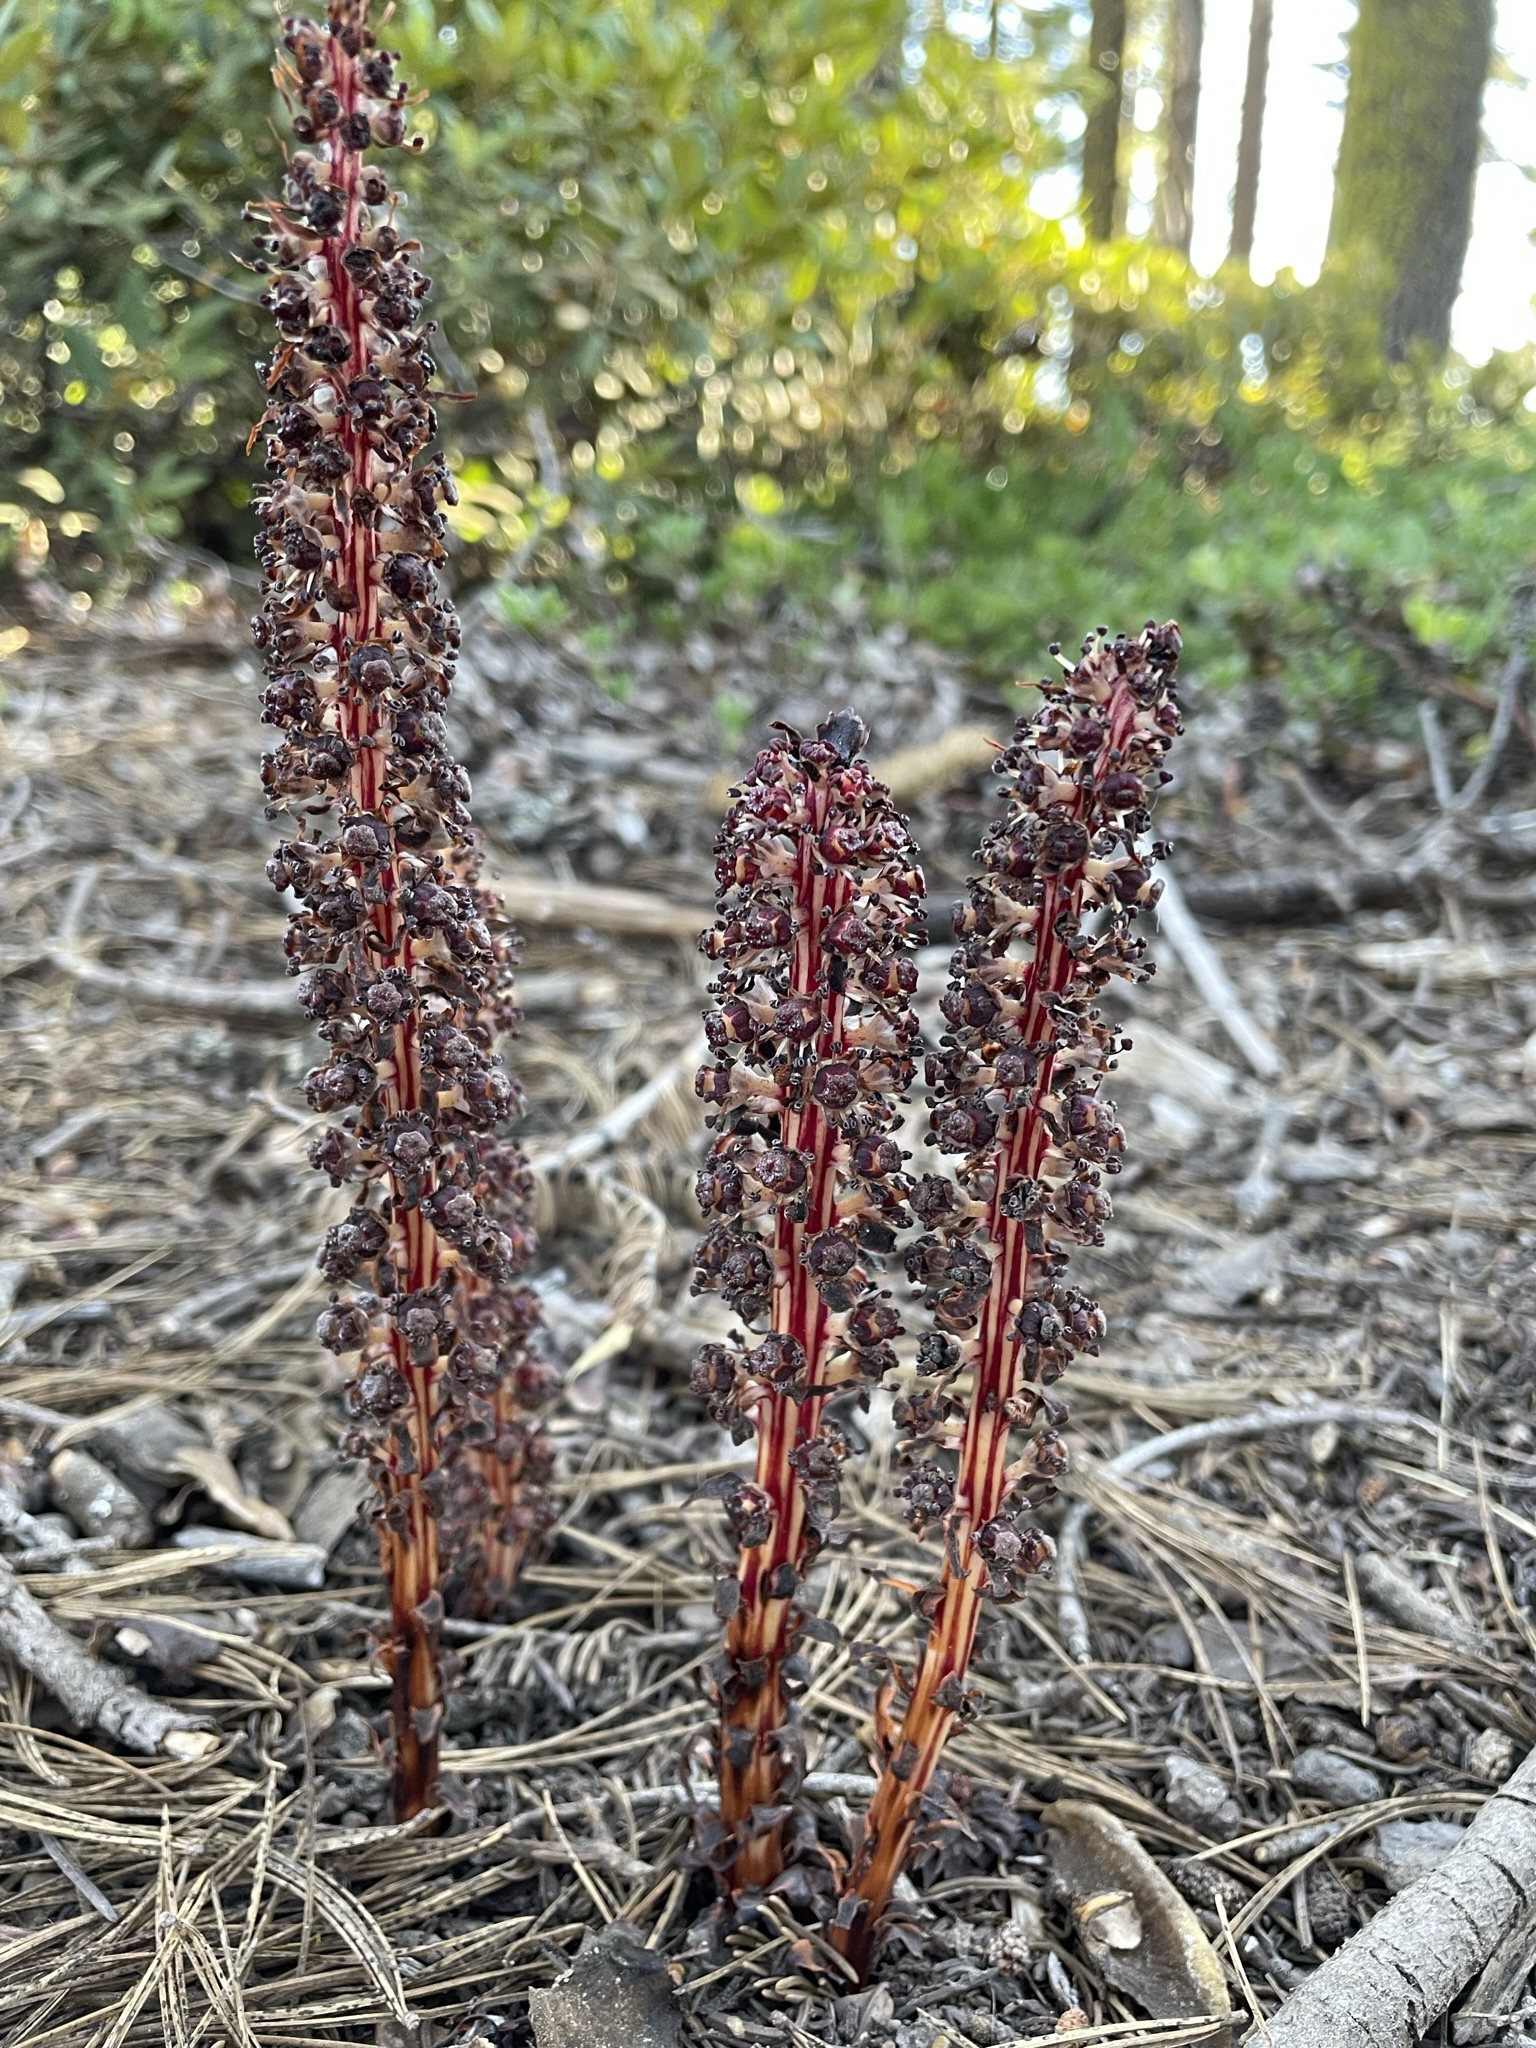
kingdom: Plantae
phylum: Tracheophyta
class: Magnoliopsida
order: Ericales
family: Ericaceae
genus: Allotropa
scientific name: Allotropa virgata
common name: Candy-striped allotropa
